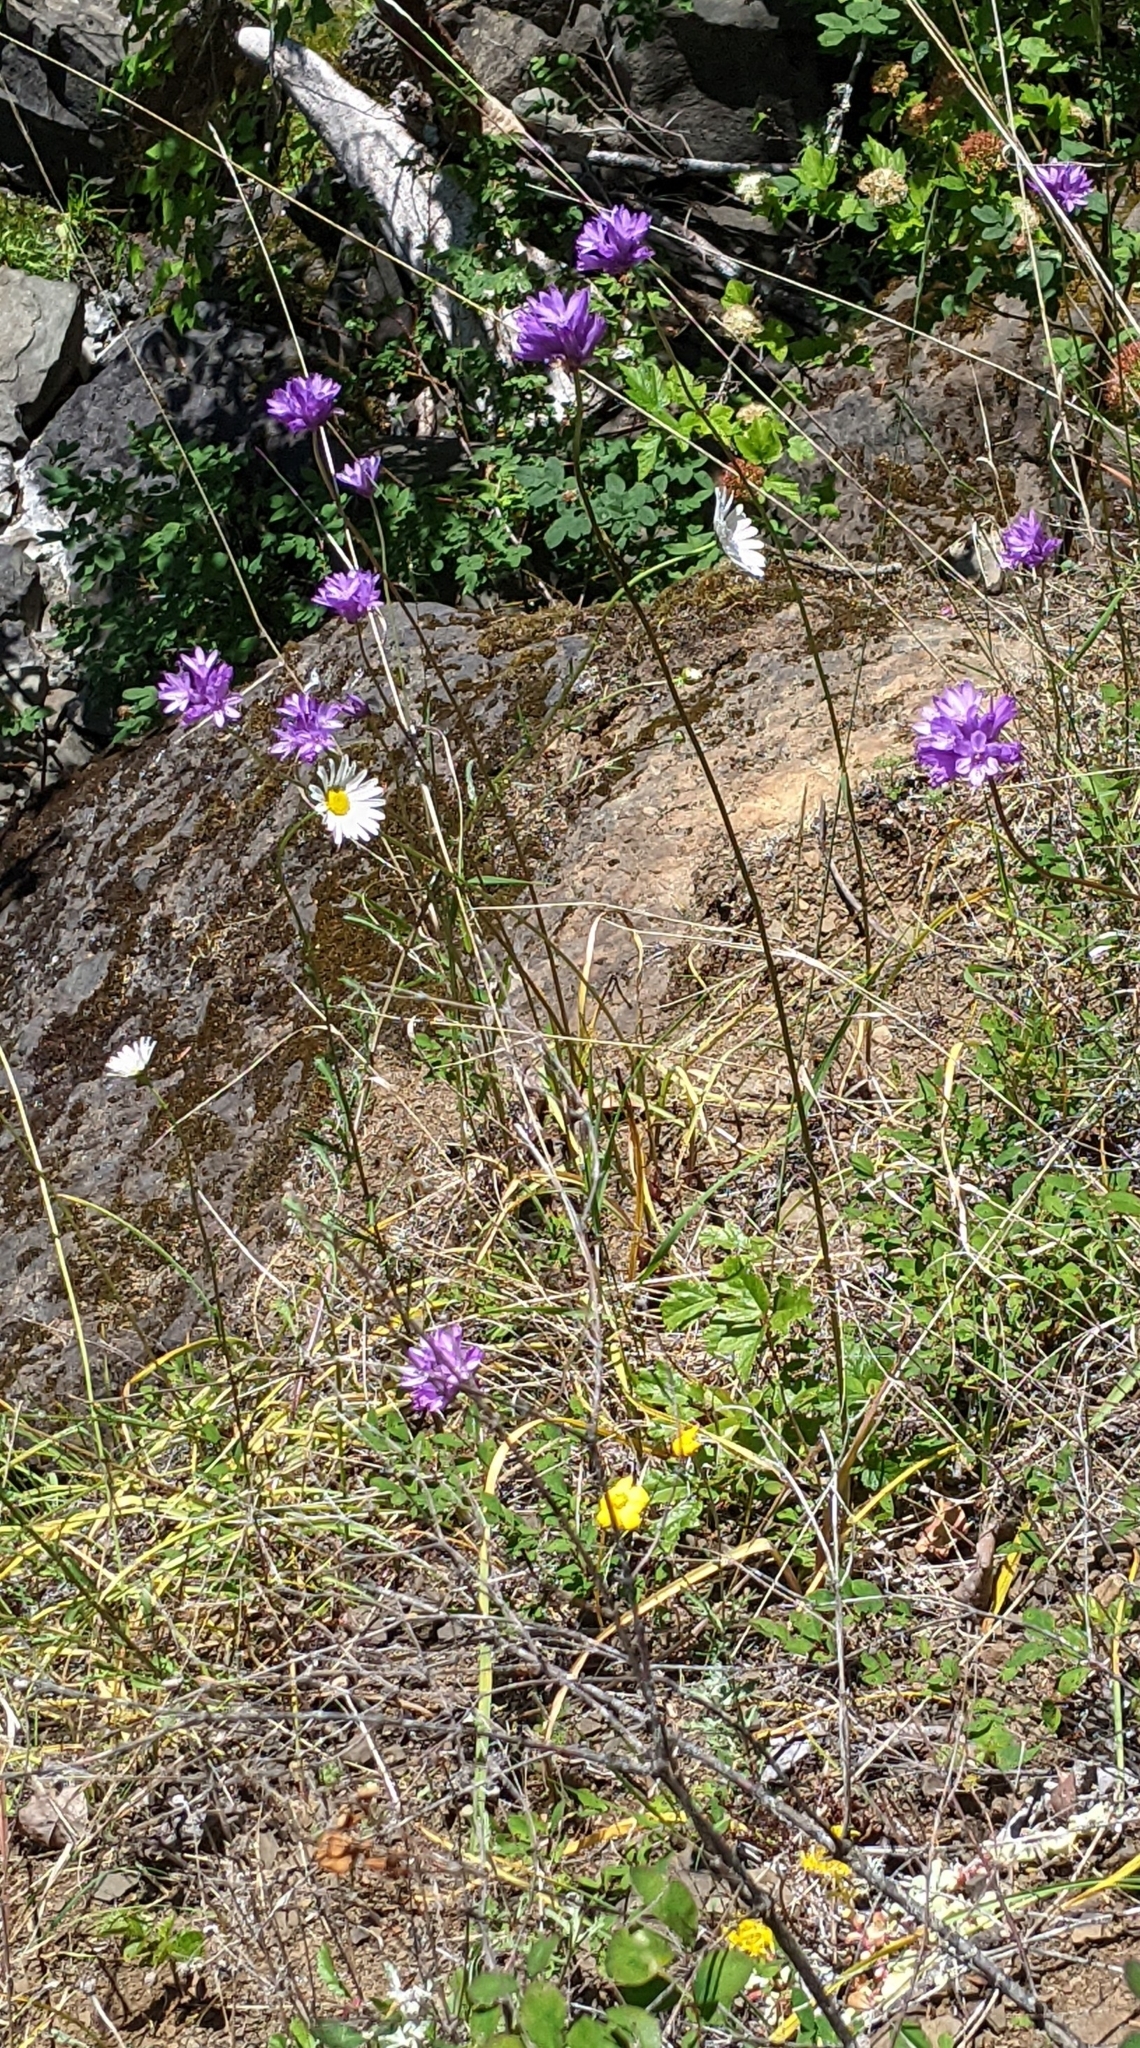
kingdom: Plantae
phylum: Tracheophyta
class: Liliopsida
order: Asparagales
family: Asparagaceae
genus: Dichelostemma
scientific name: Dichelostemma congestum
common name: Fork-tooth ookow
